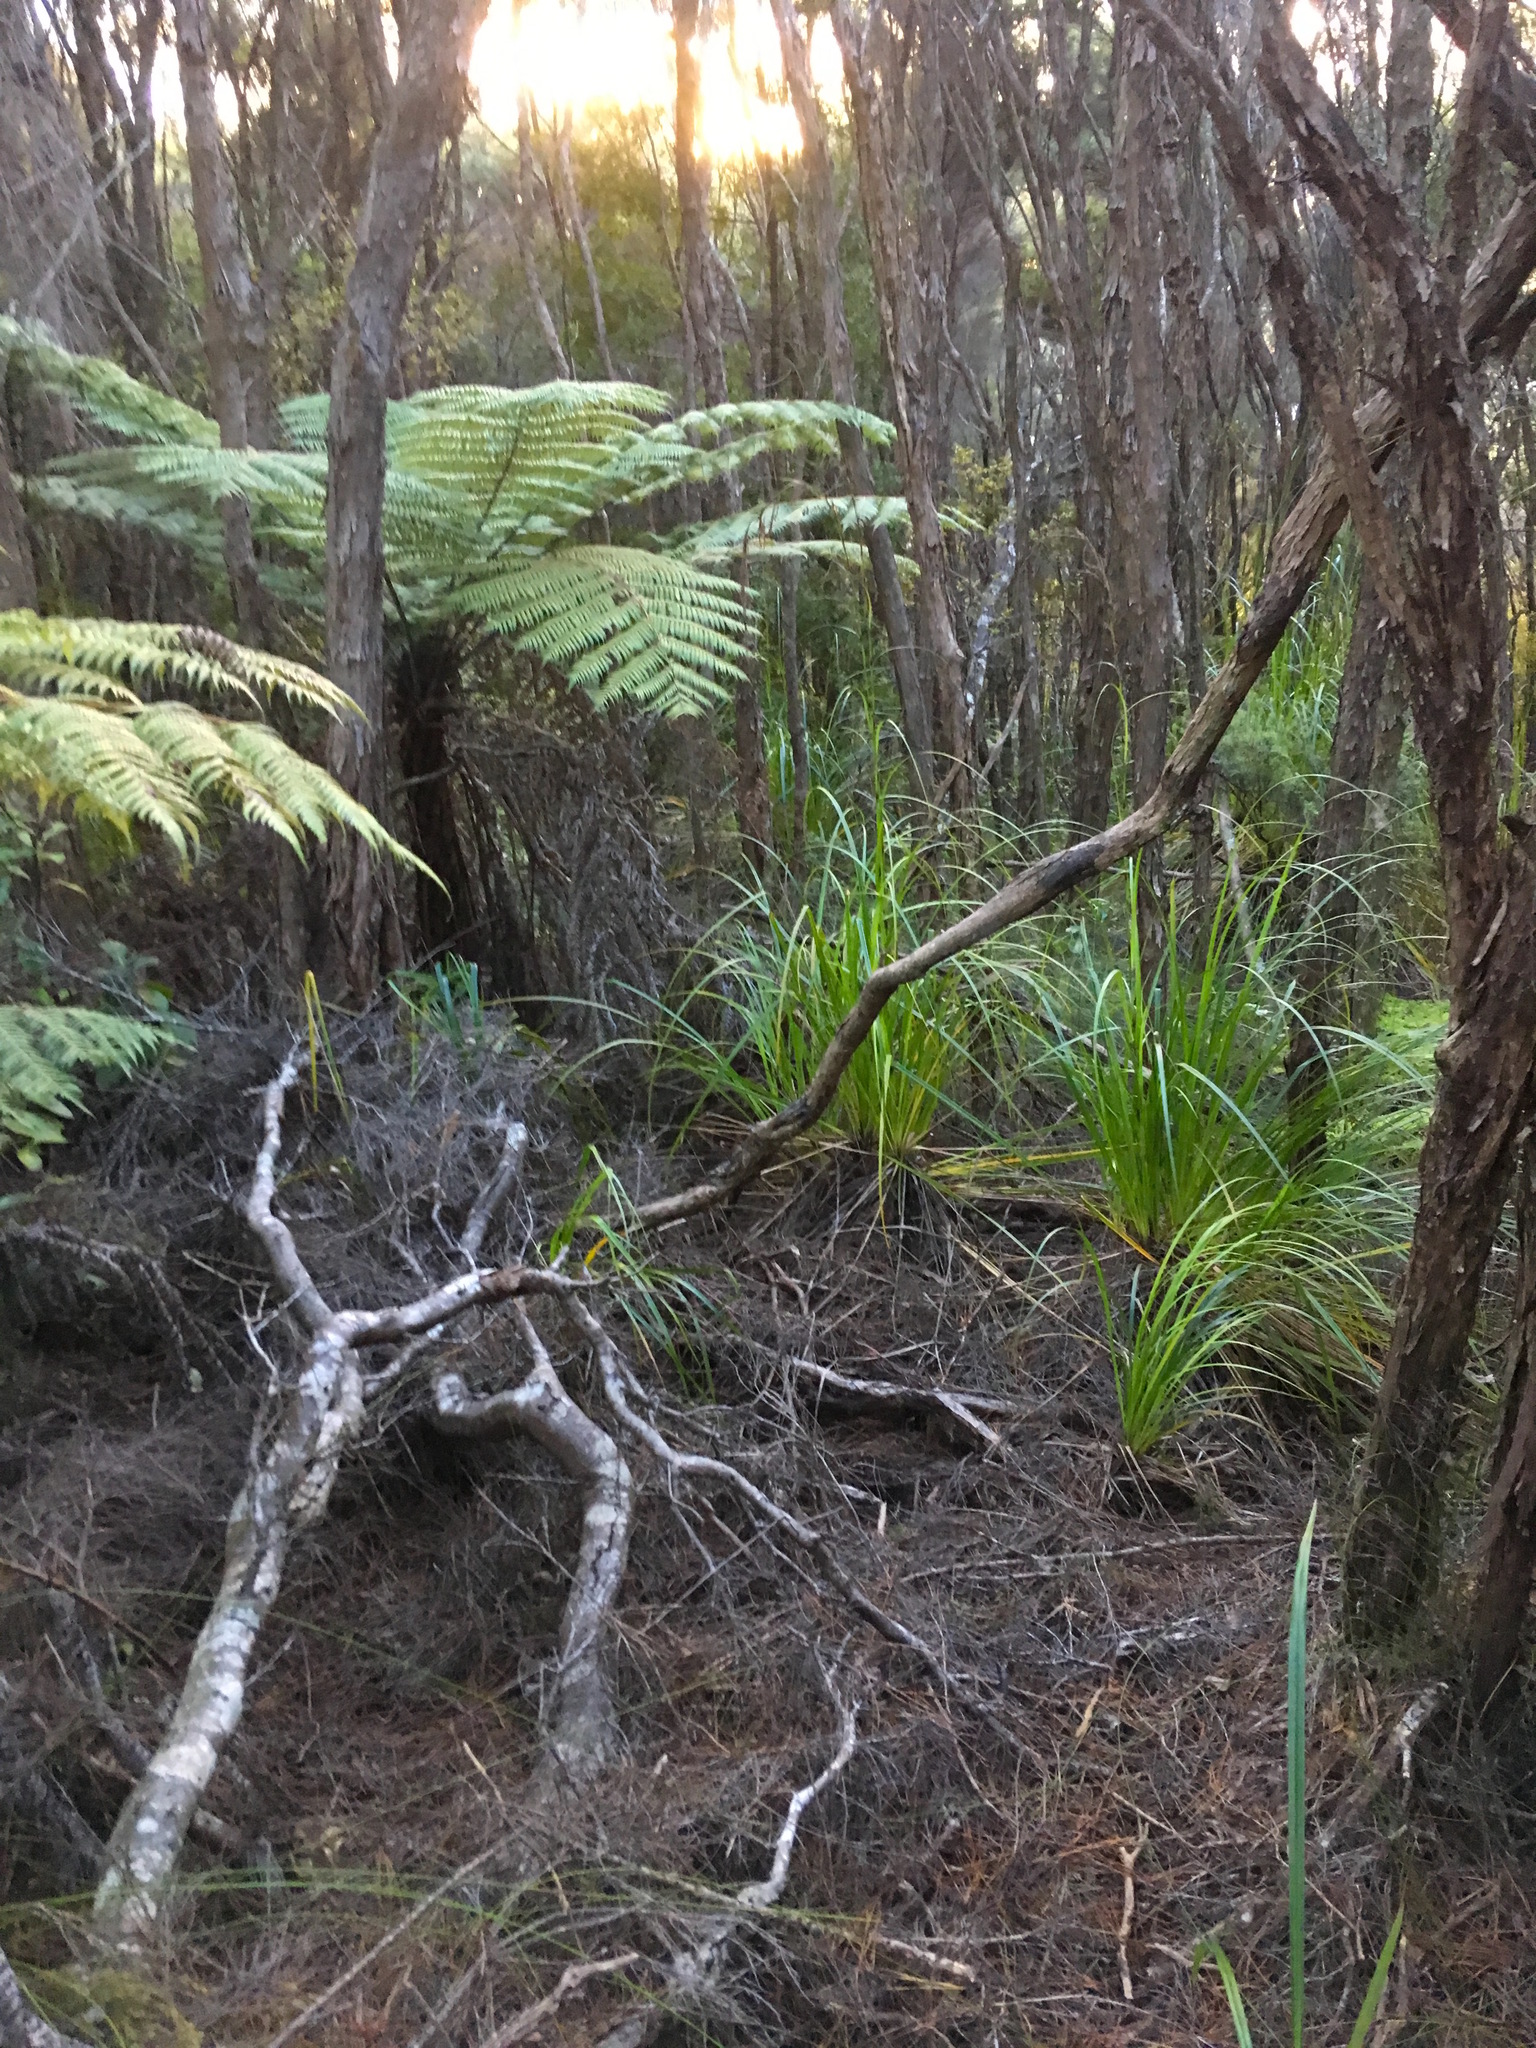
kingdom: Plantae
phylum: Tracheophyta
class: Magnoliopsida
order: Proteales
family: Proteaceae
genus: Hakea
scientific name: Hakea sericea
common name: Needle bush
